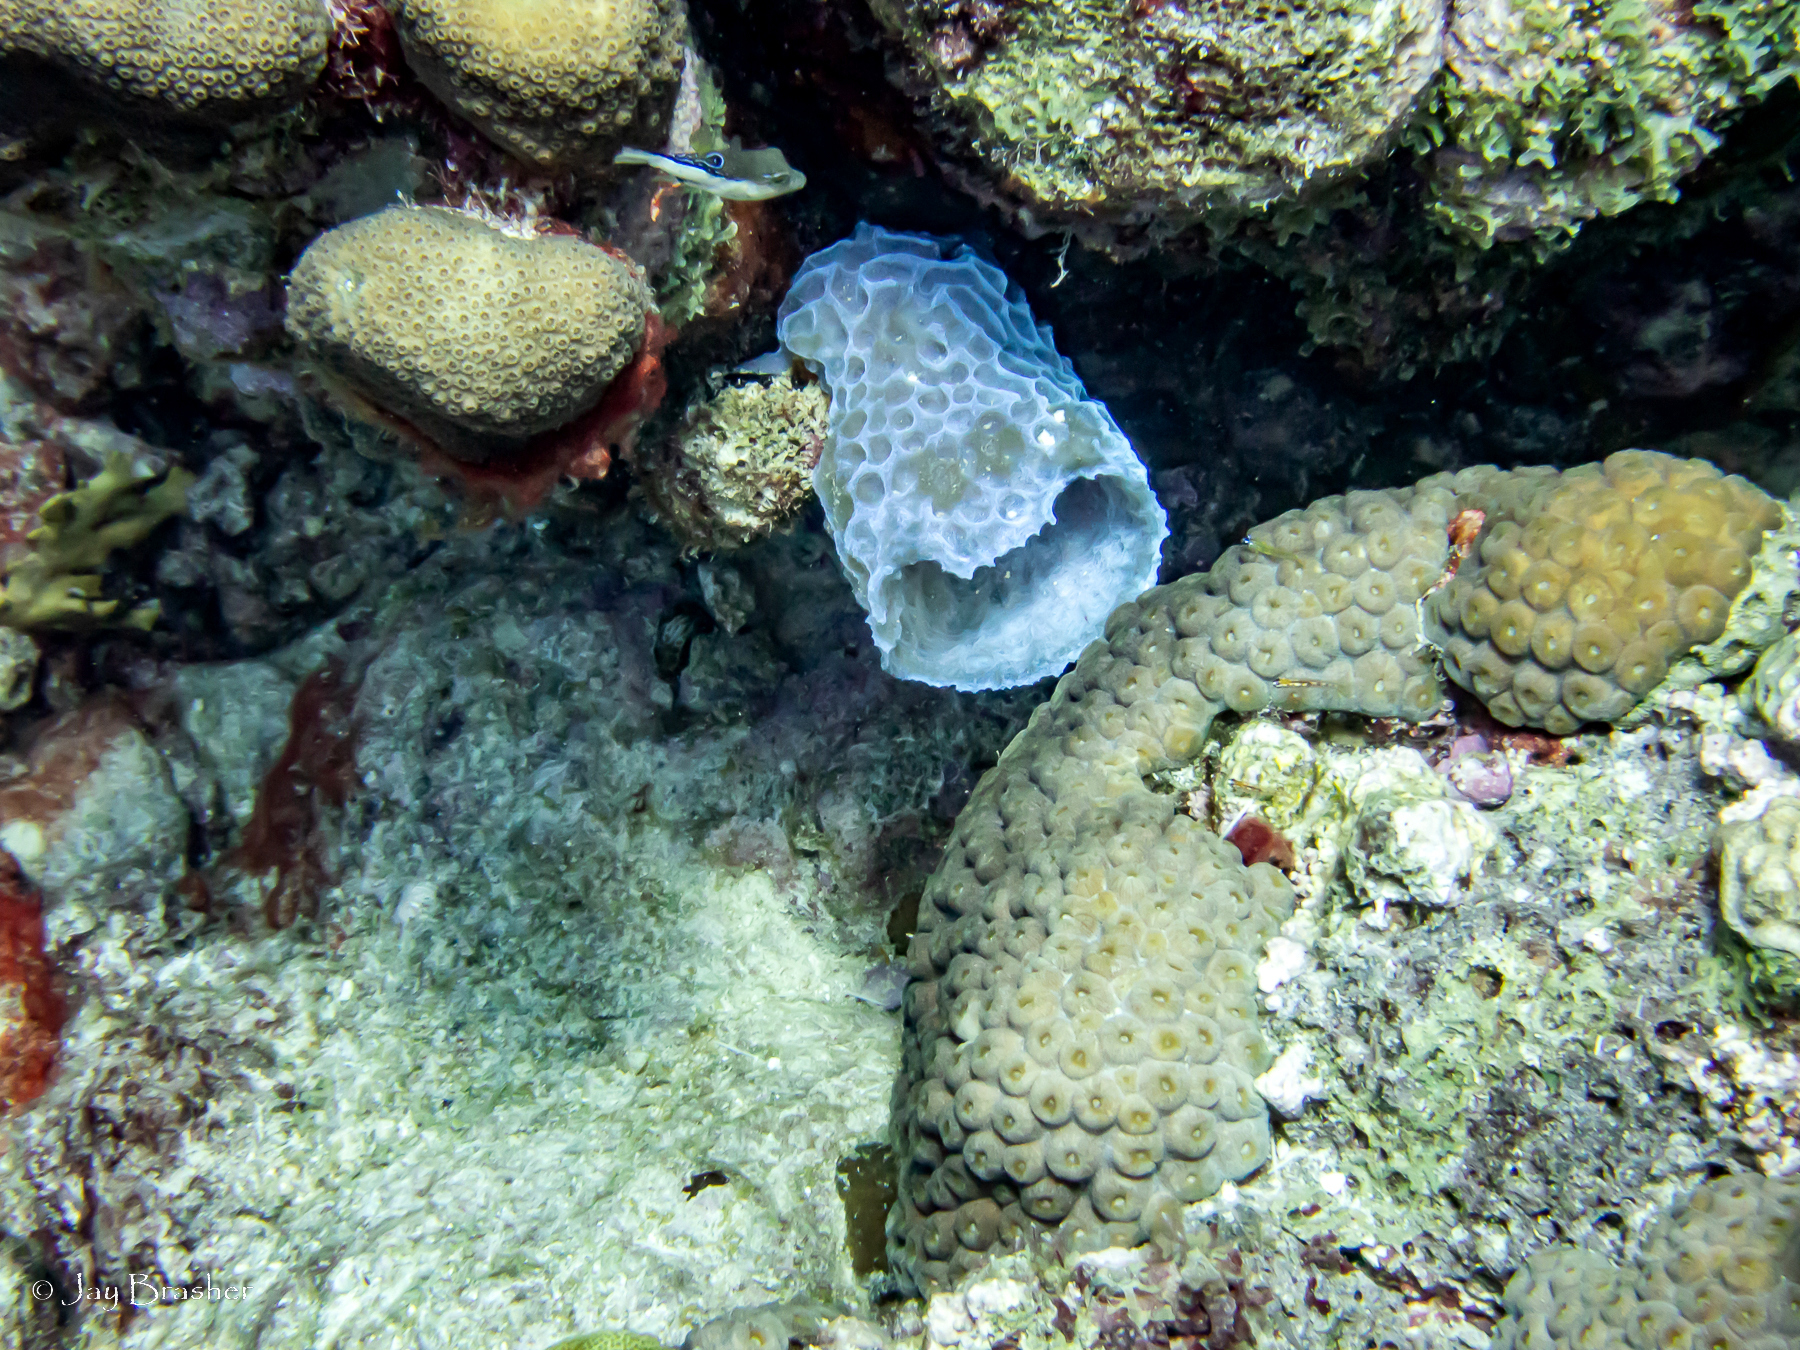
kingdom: Animalia
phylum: Porifera
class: Demospongiae
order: Haplosclerida
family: Callyspongiidae
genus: Callyspongia
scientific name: Callyspongia plicifera
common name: Azure vase sponge
